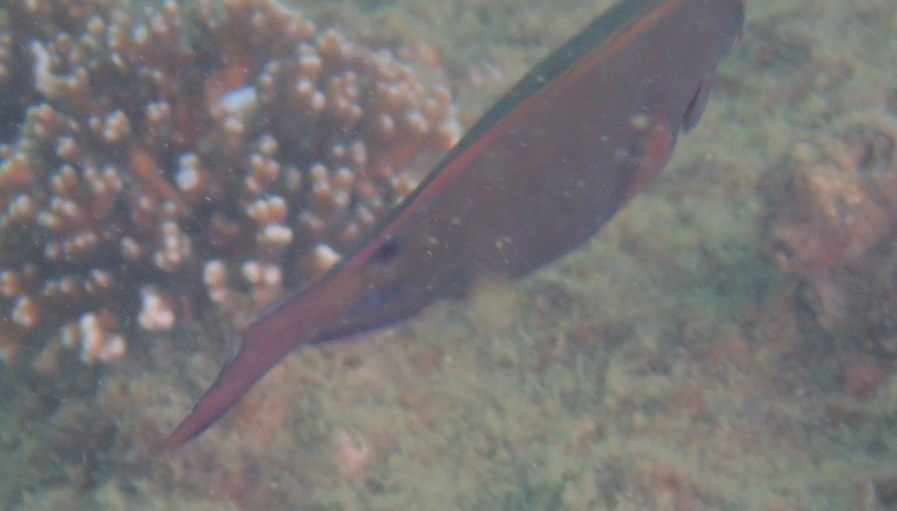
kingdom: Animalia
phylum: Chordata
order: Perciformes
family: Acanthuridae
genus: Acanthurus
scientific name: Acanthurus nigrofuscus
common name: Blackspot surgeonfish
